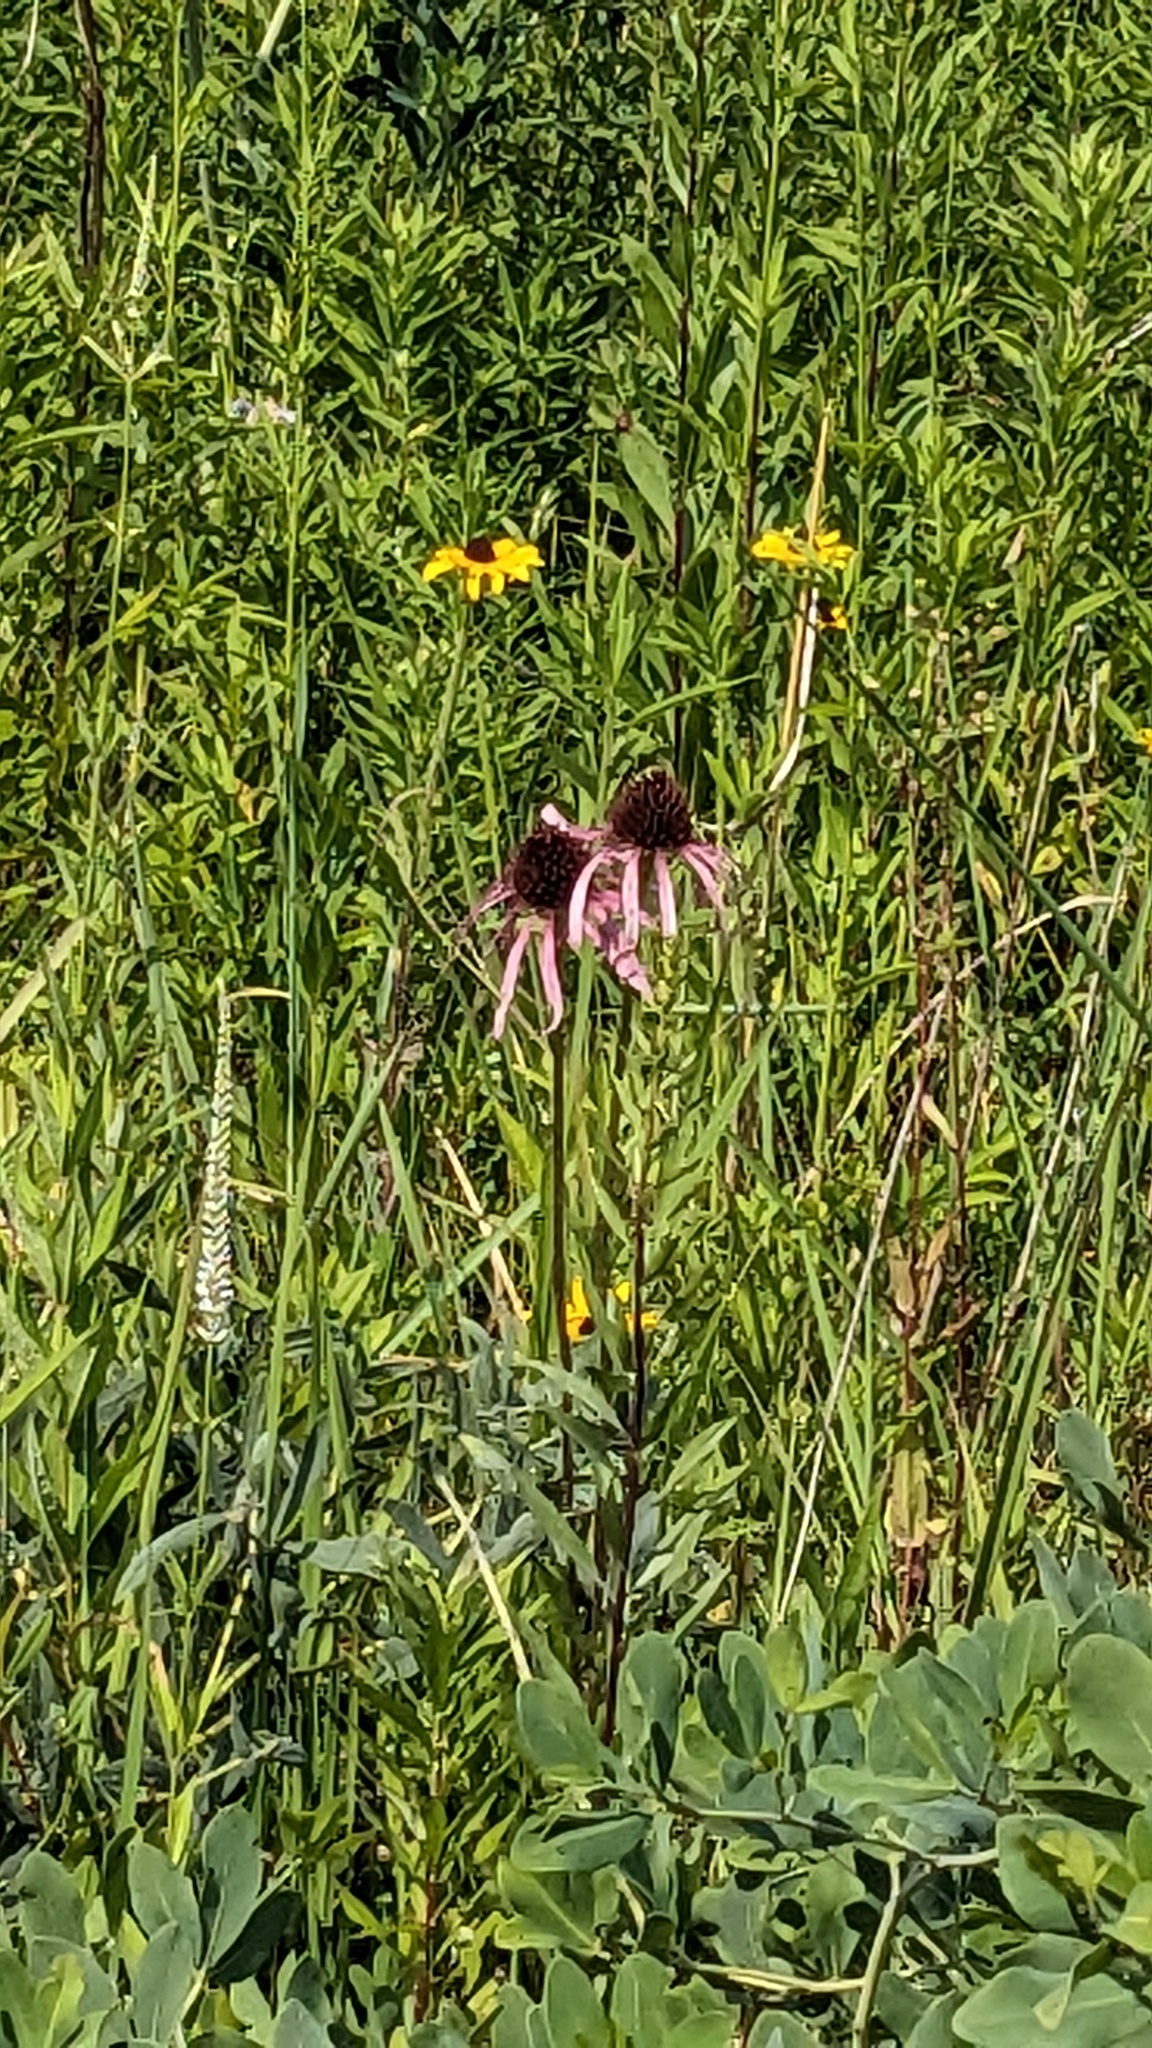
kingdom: Plantae
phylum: Tracheophyta
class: Magnoliopsida
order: Asterales
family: Asteraceae
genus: Echinacea
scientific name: Echinacea pallida
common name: Pale echinacea
